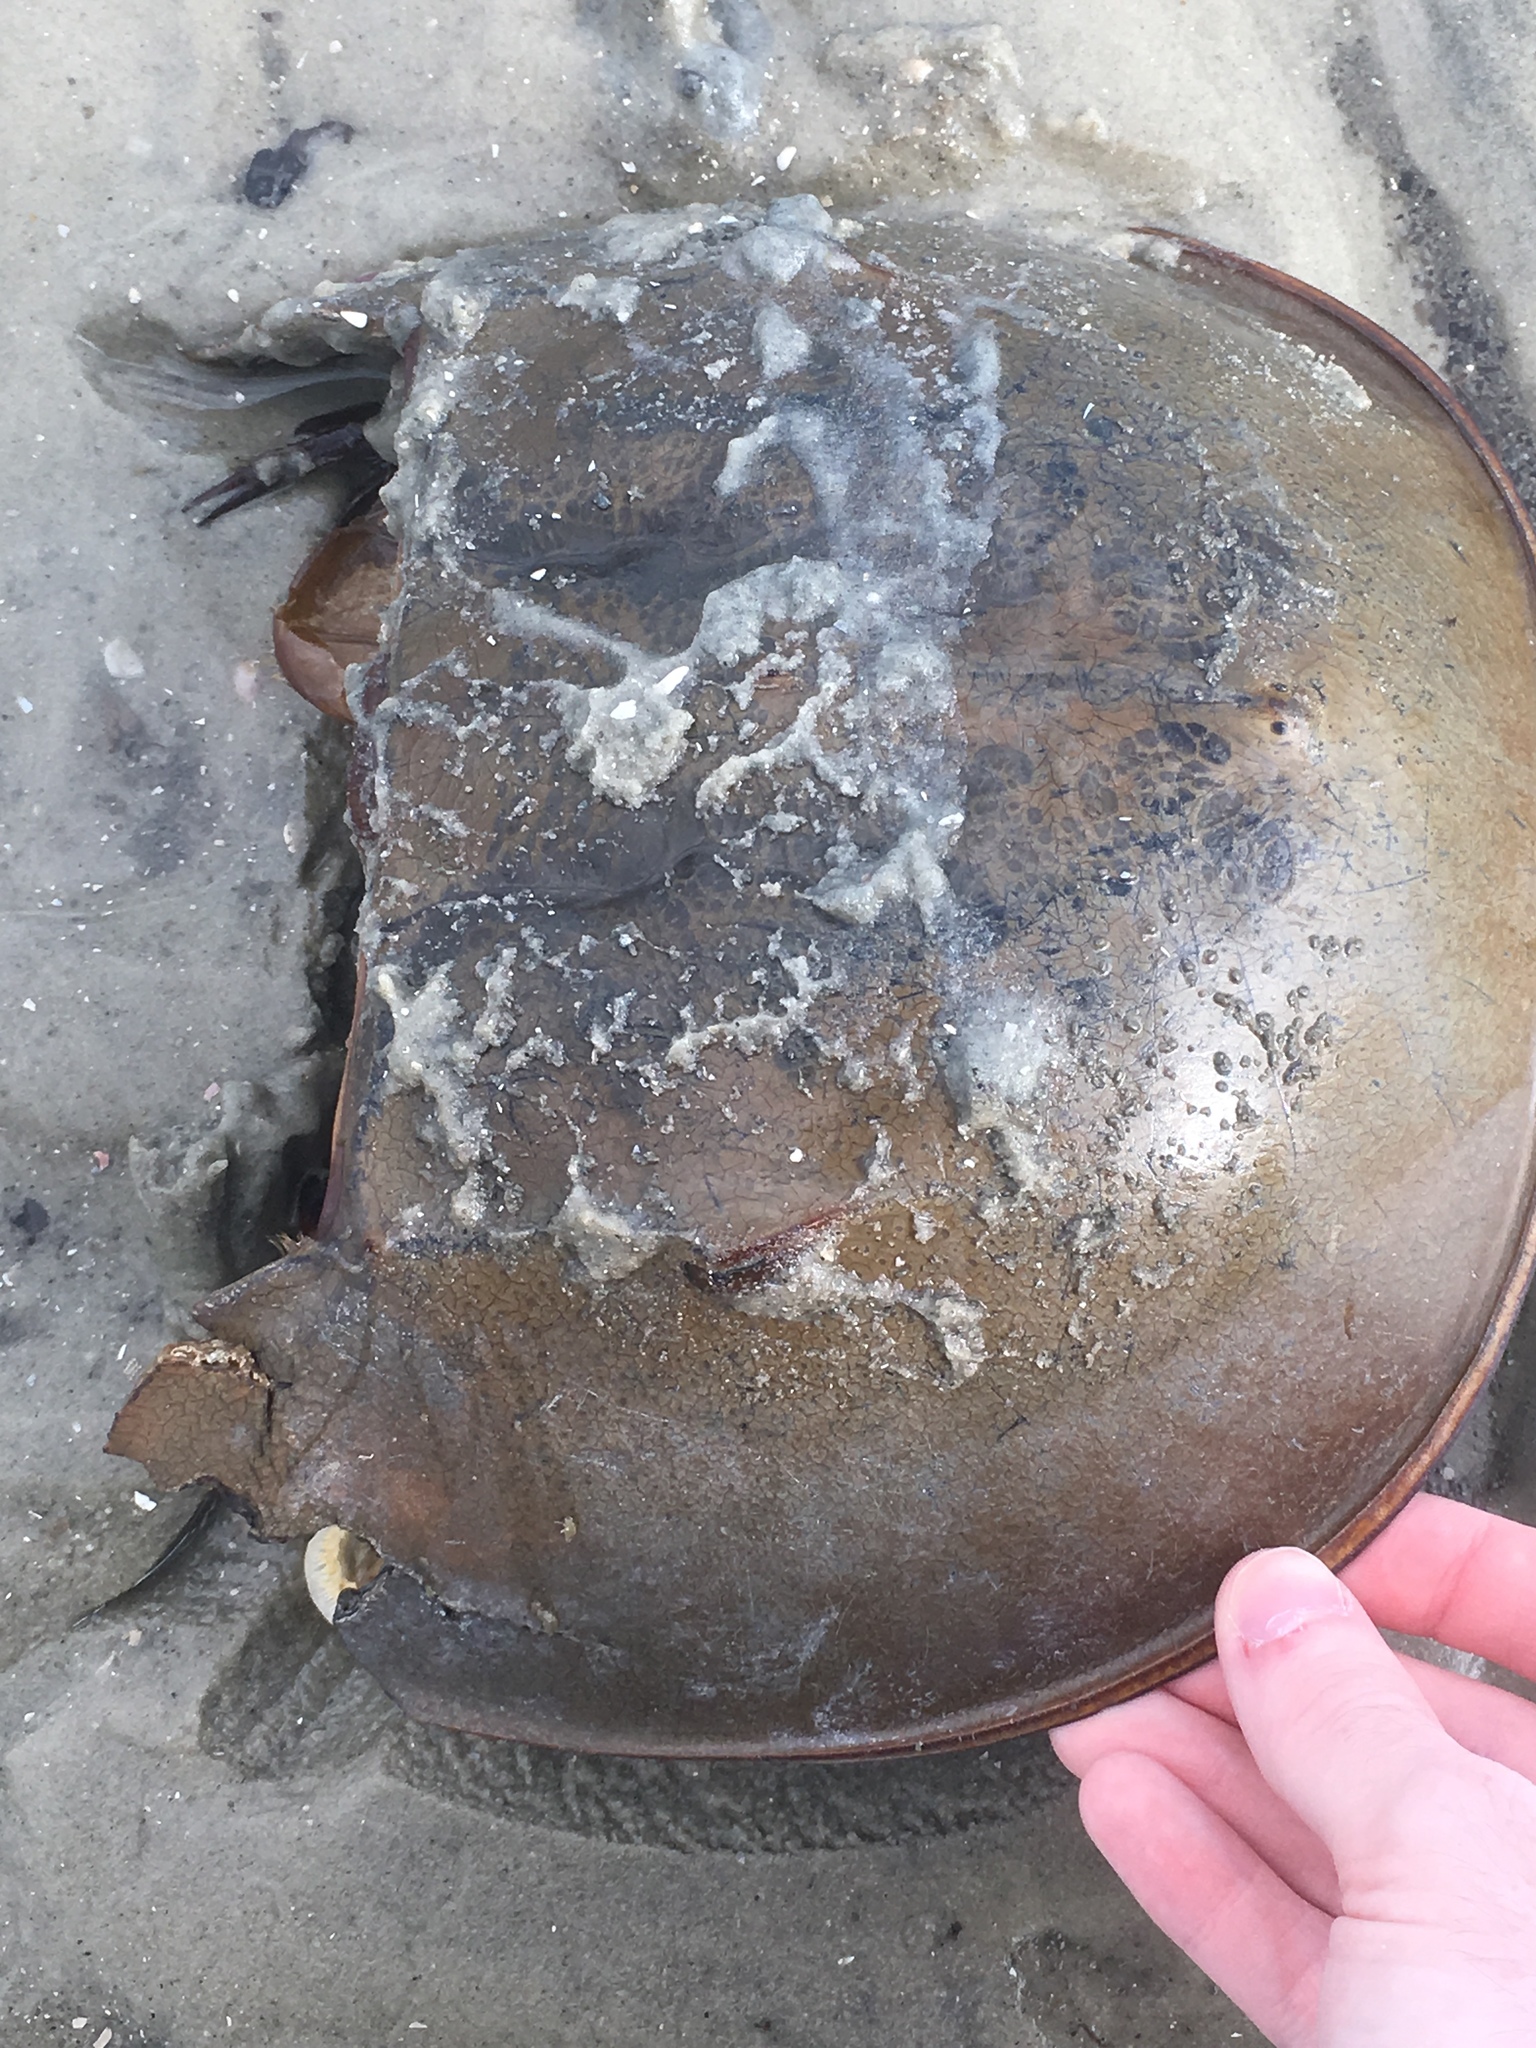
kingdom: Animalia
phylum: Arthropoda
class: Merostomata
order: Xiphosurida
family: Limulidae
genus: Limulus
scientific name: Limulus polyphemus
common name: Horseshoe crab
